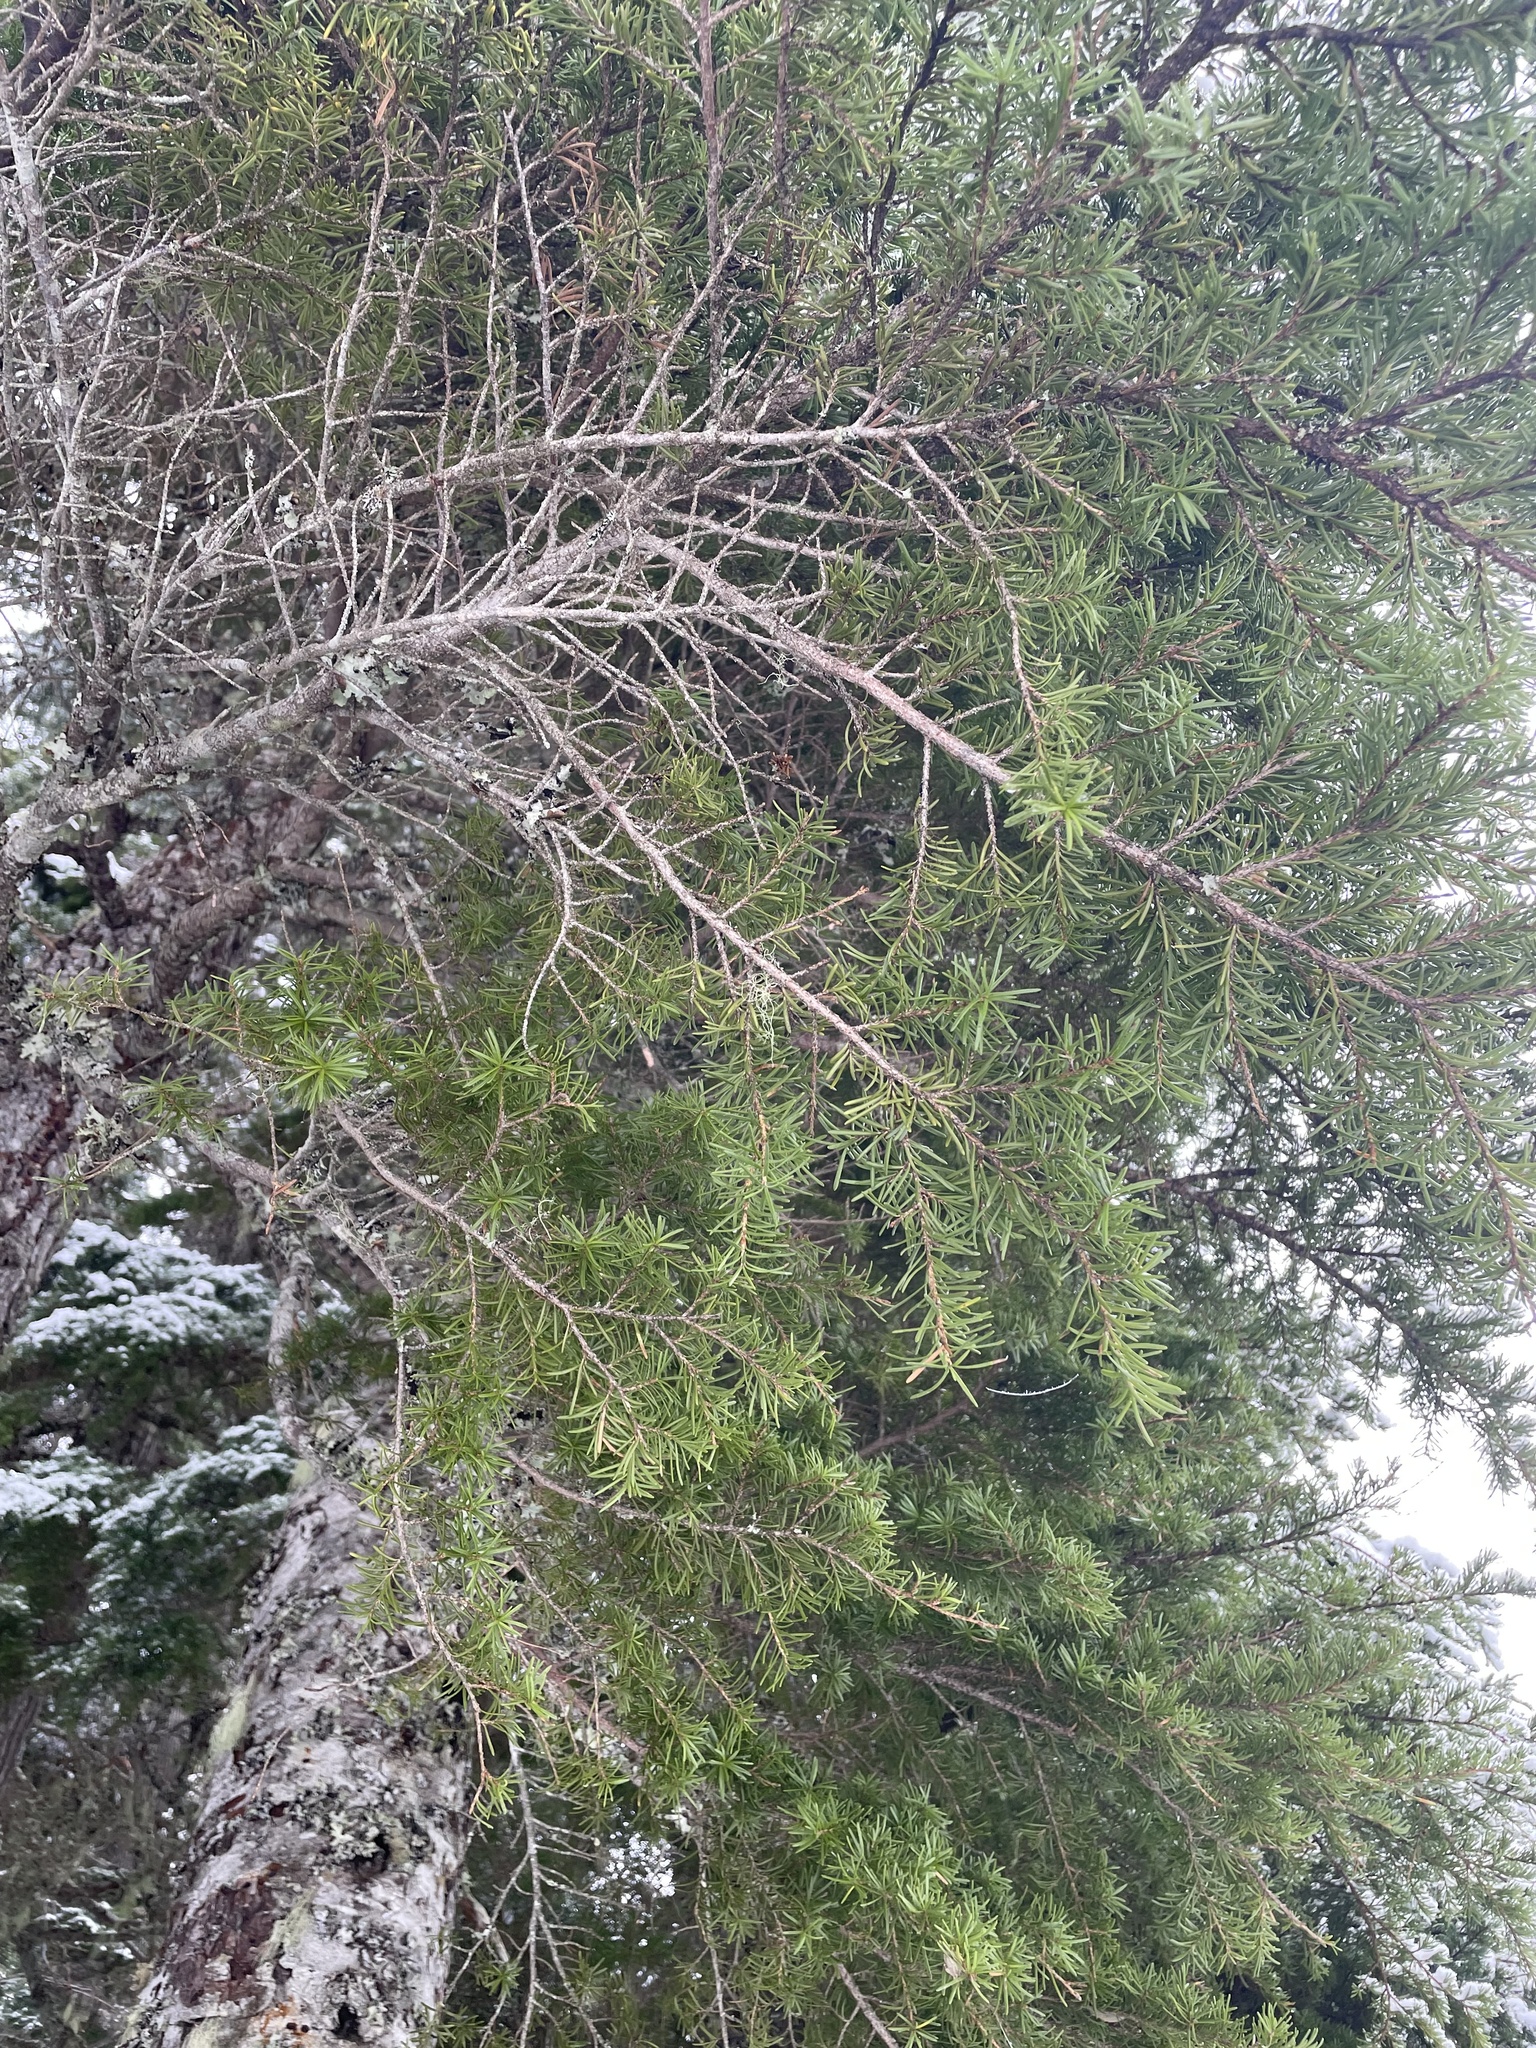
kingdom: Plantae
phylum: Tracheophyta
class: Pinopsida
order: Pinales
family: Pinaceae
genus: Tsuga
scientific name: Tsuga mertensiana
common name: Mountain hemlock
